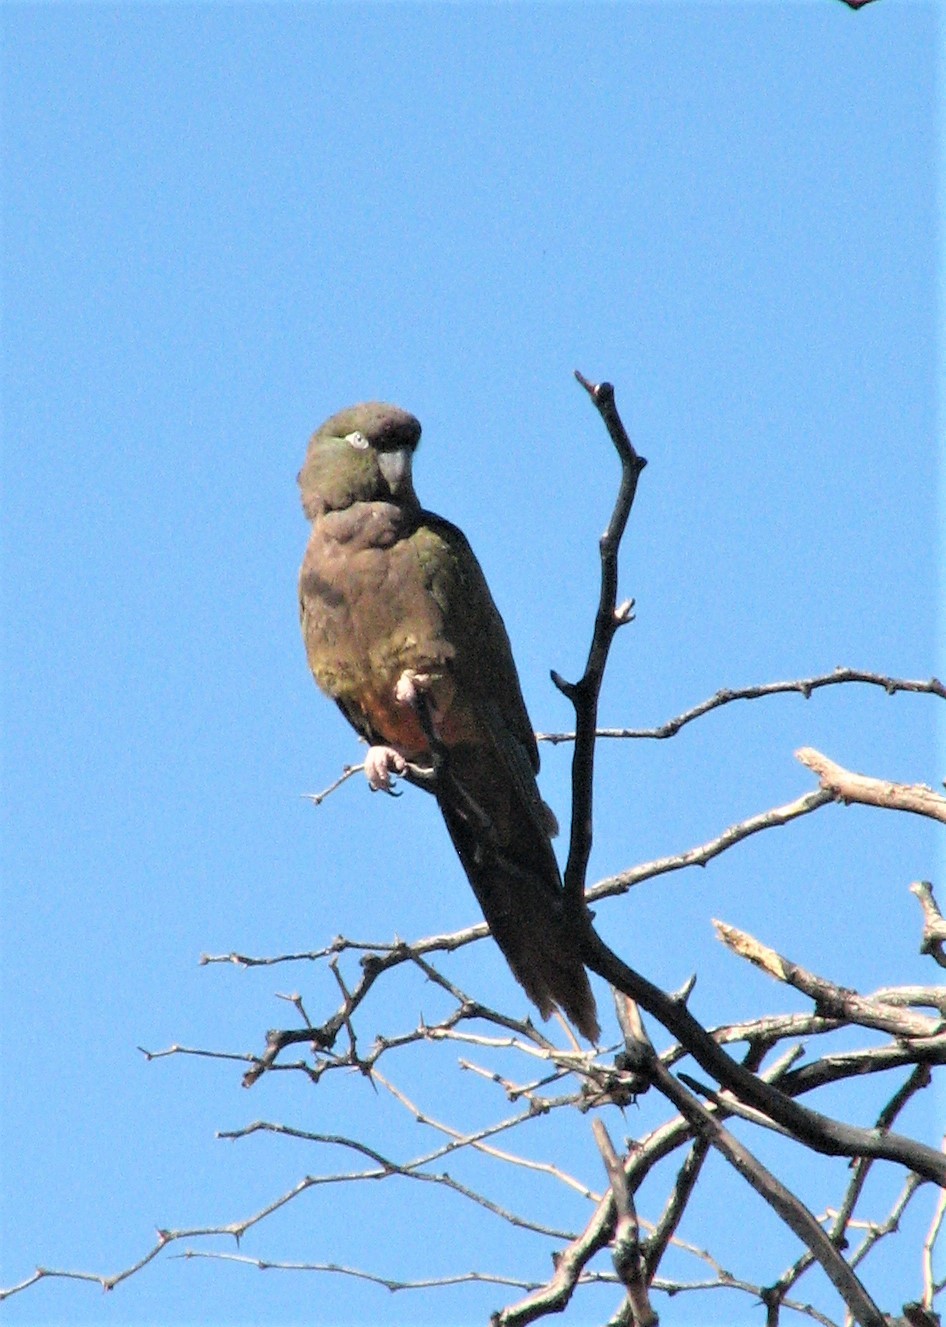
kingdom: Animalia
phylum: Chordata
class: Aves
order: Psittaciformes
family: Psittacidae
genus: Cyanoliseus
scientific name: Cyanoliseus patagonus
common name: Burrowing parrot
